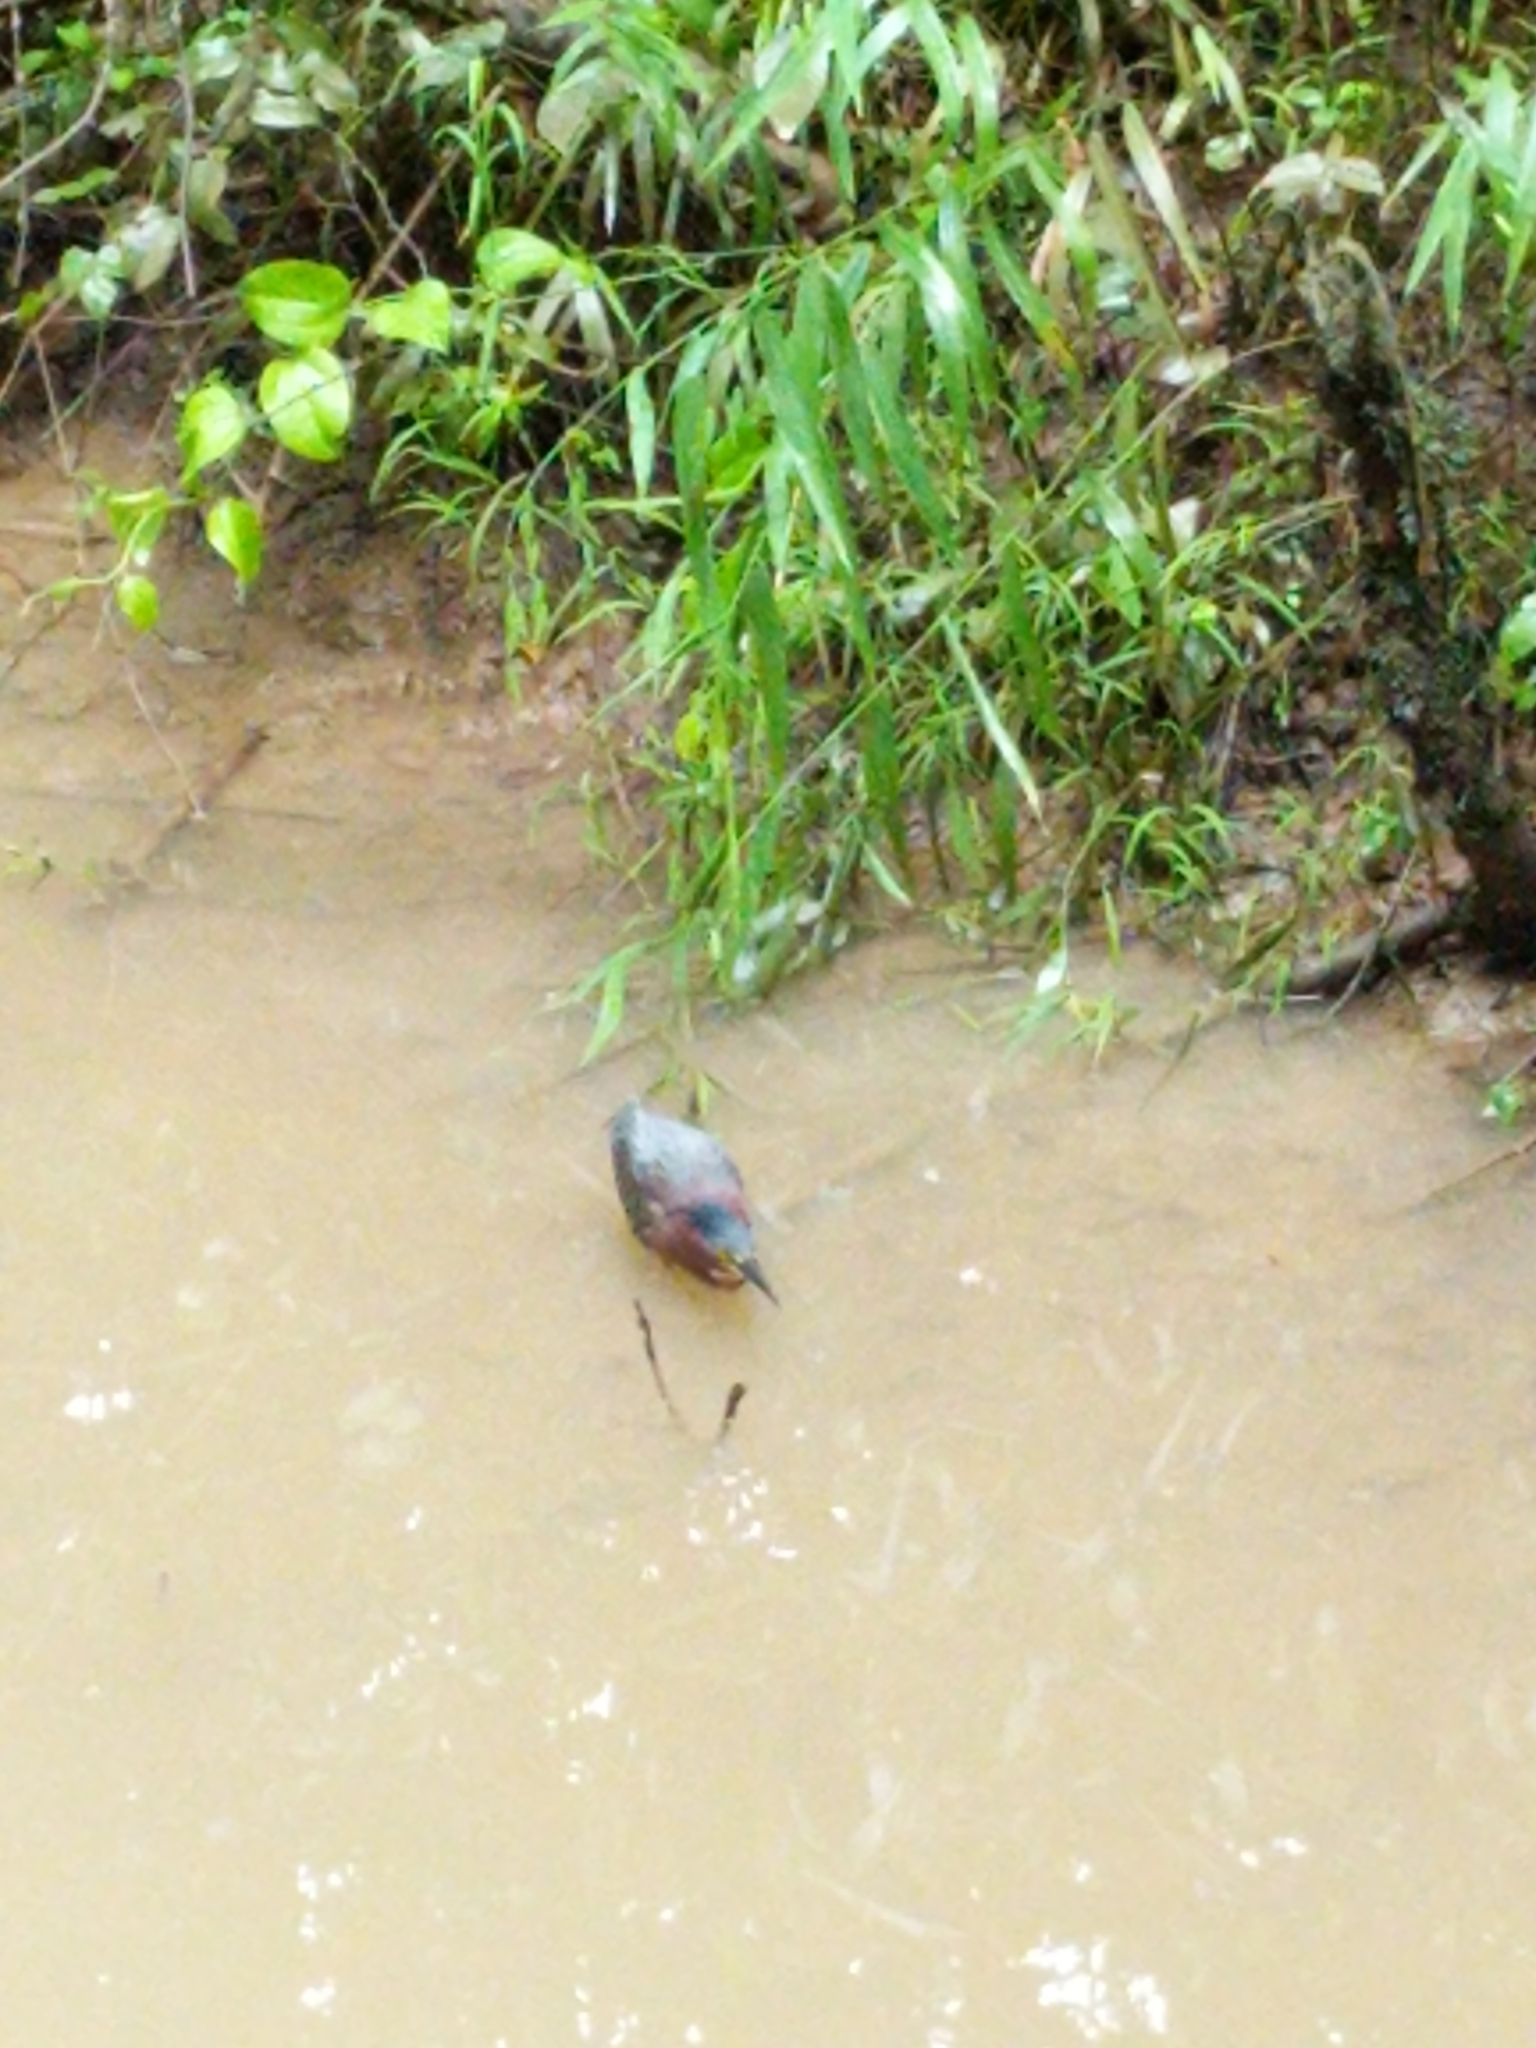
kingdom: Animalia
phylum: Chordata
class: Aves
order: Pelecaniformes
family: Ardeidae
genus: Butorides
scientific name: Butorides virescens
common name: Green heron
